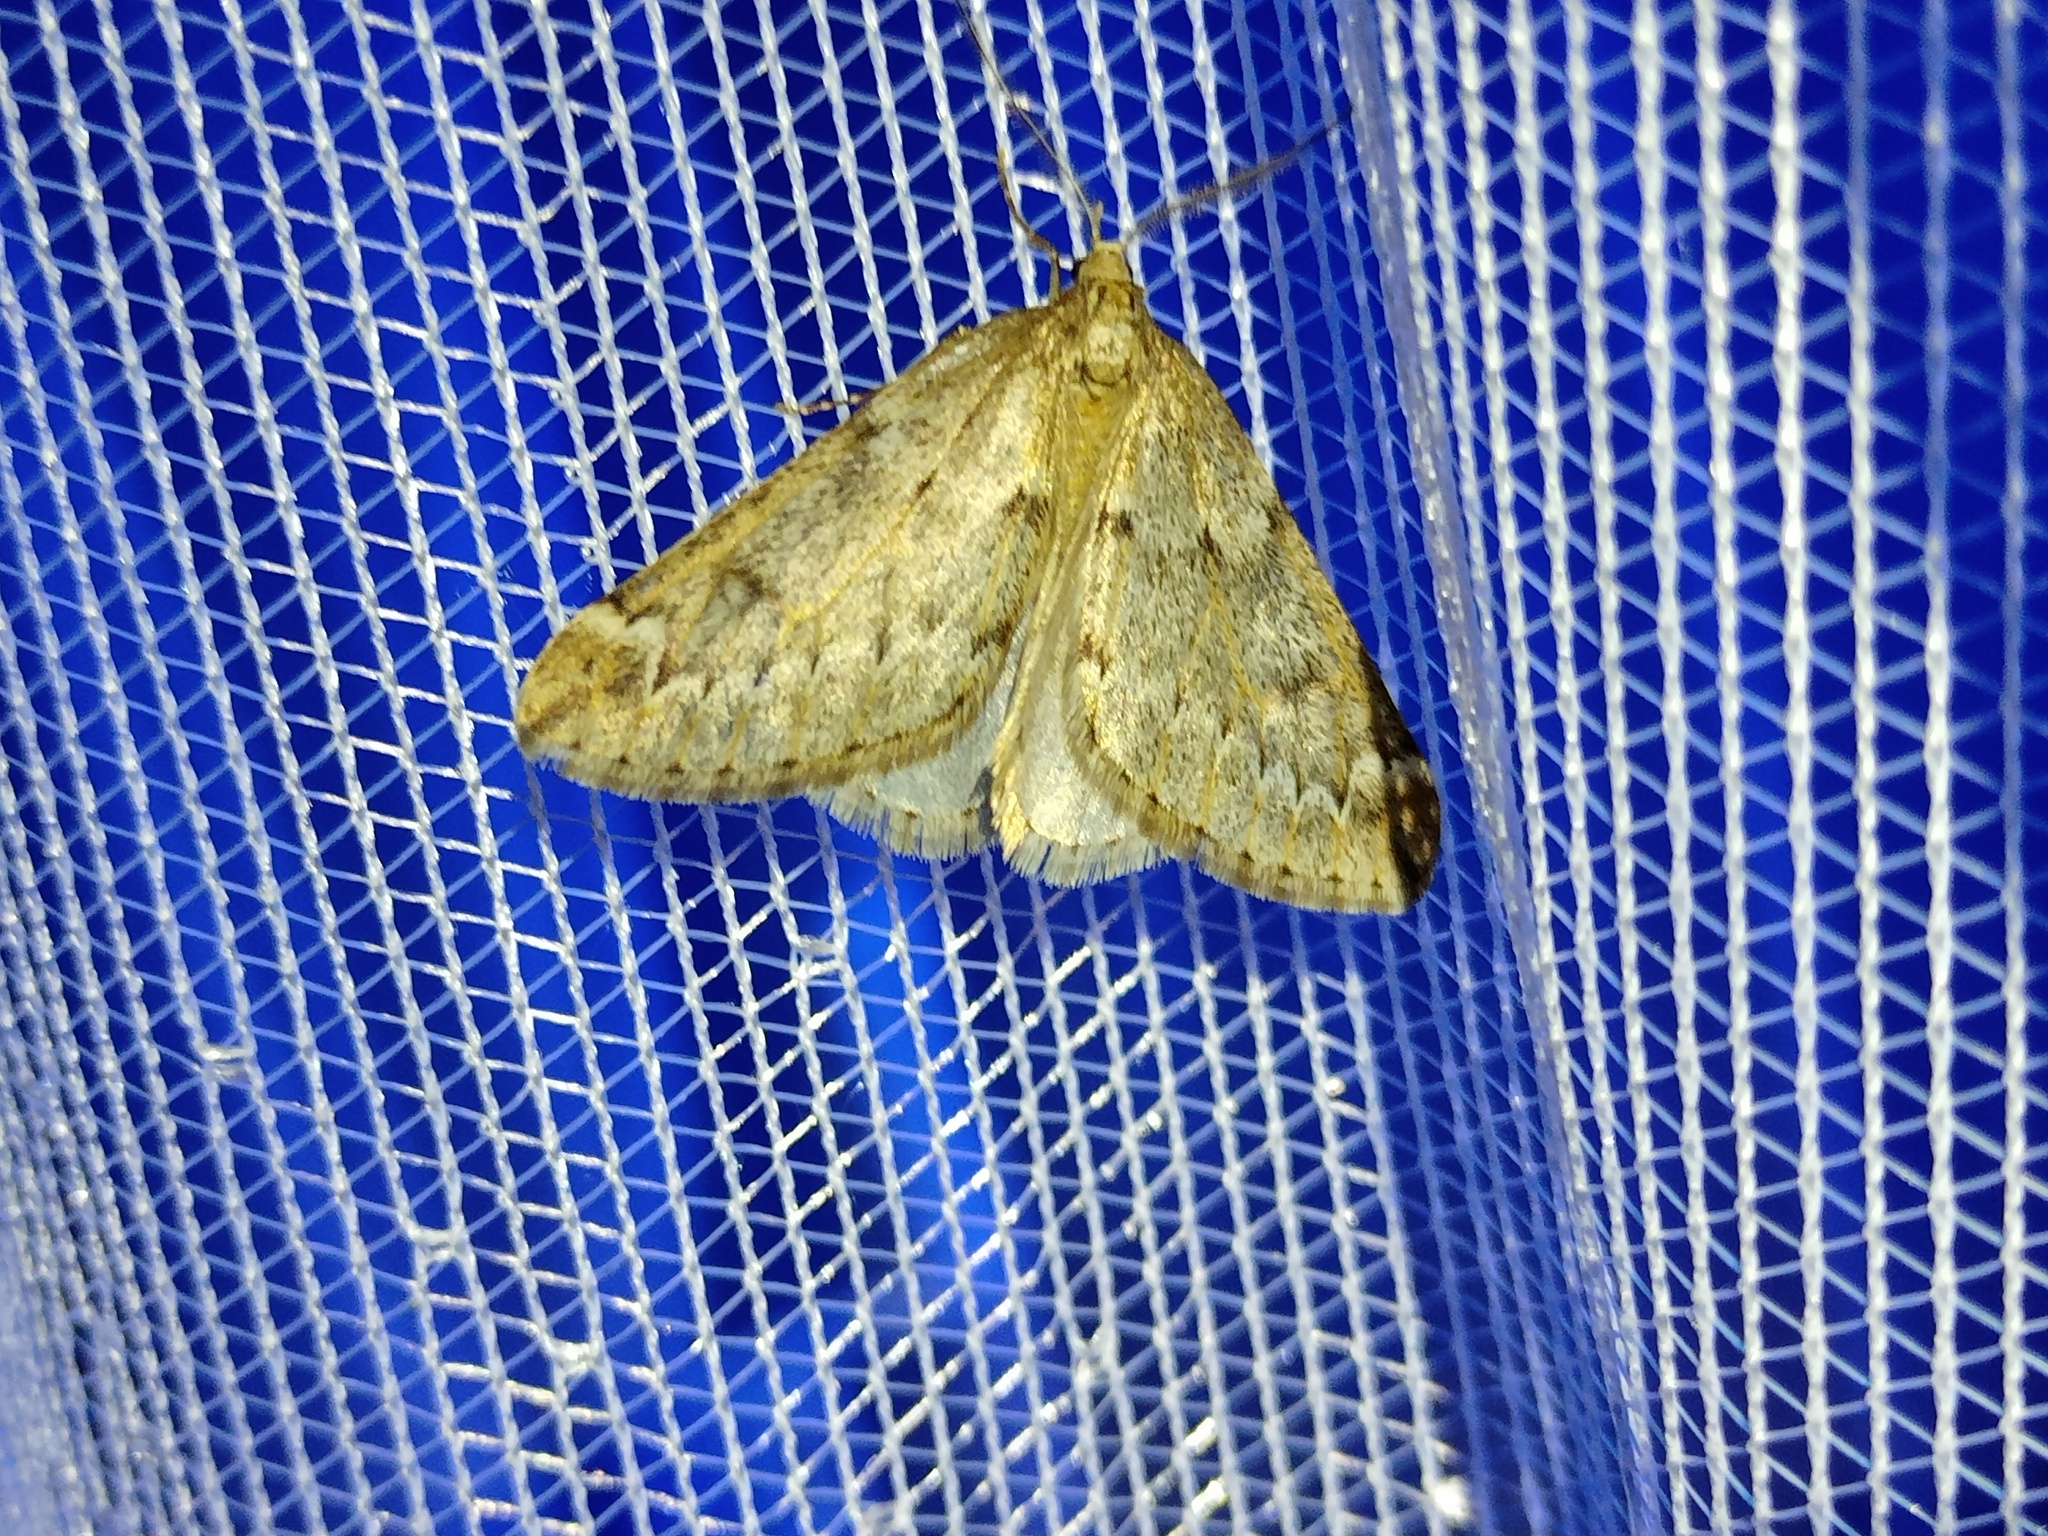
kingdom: Animalia
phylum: Arthropoda
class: Insecta
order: Lepidoptera
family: Geometridae
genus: Alsophila
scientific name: Alsophila aescularia
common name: March moth
